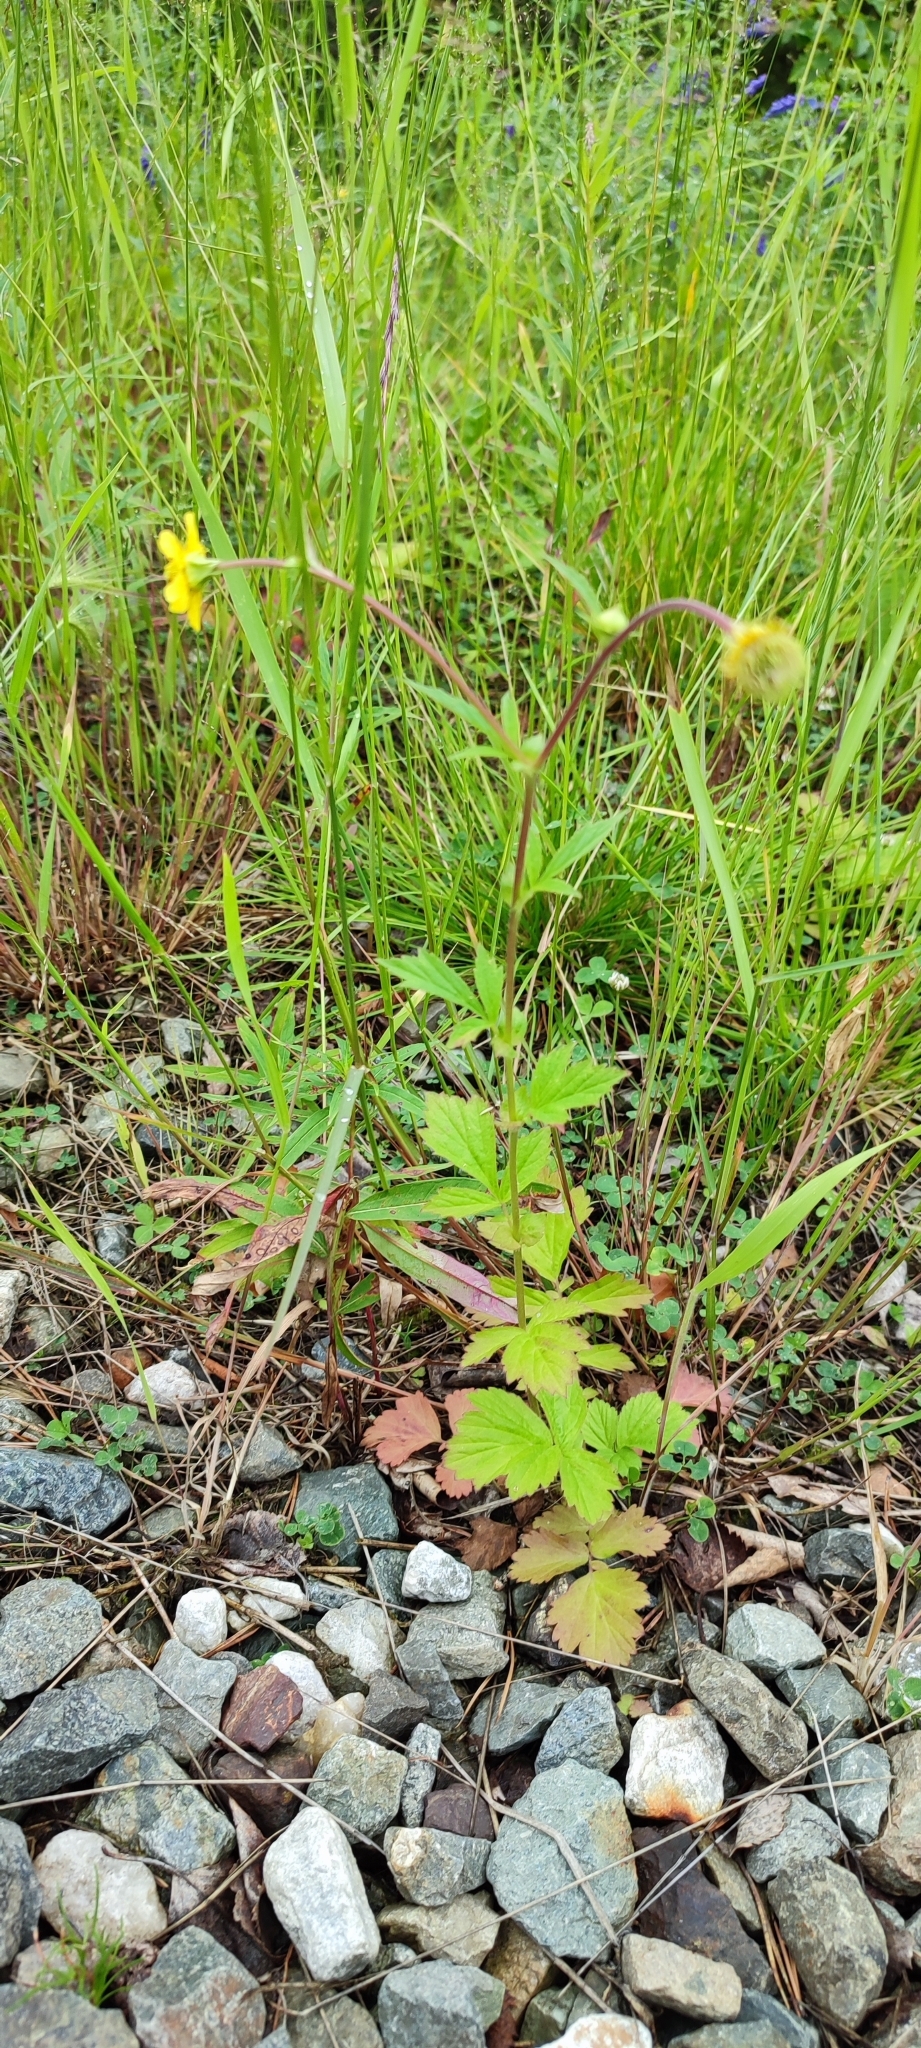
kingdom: Plantae
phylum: Tracheophyta
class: Magnoliopsida
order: Rosales
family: Rosaceae
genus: Geum
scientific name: Geum aleppicum
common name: Yellow avens
